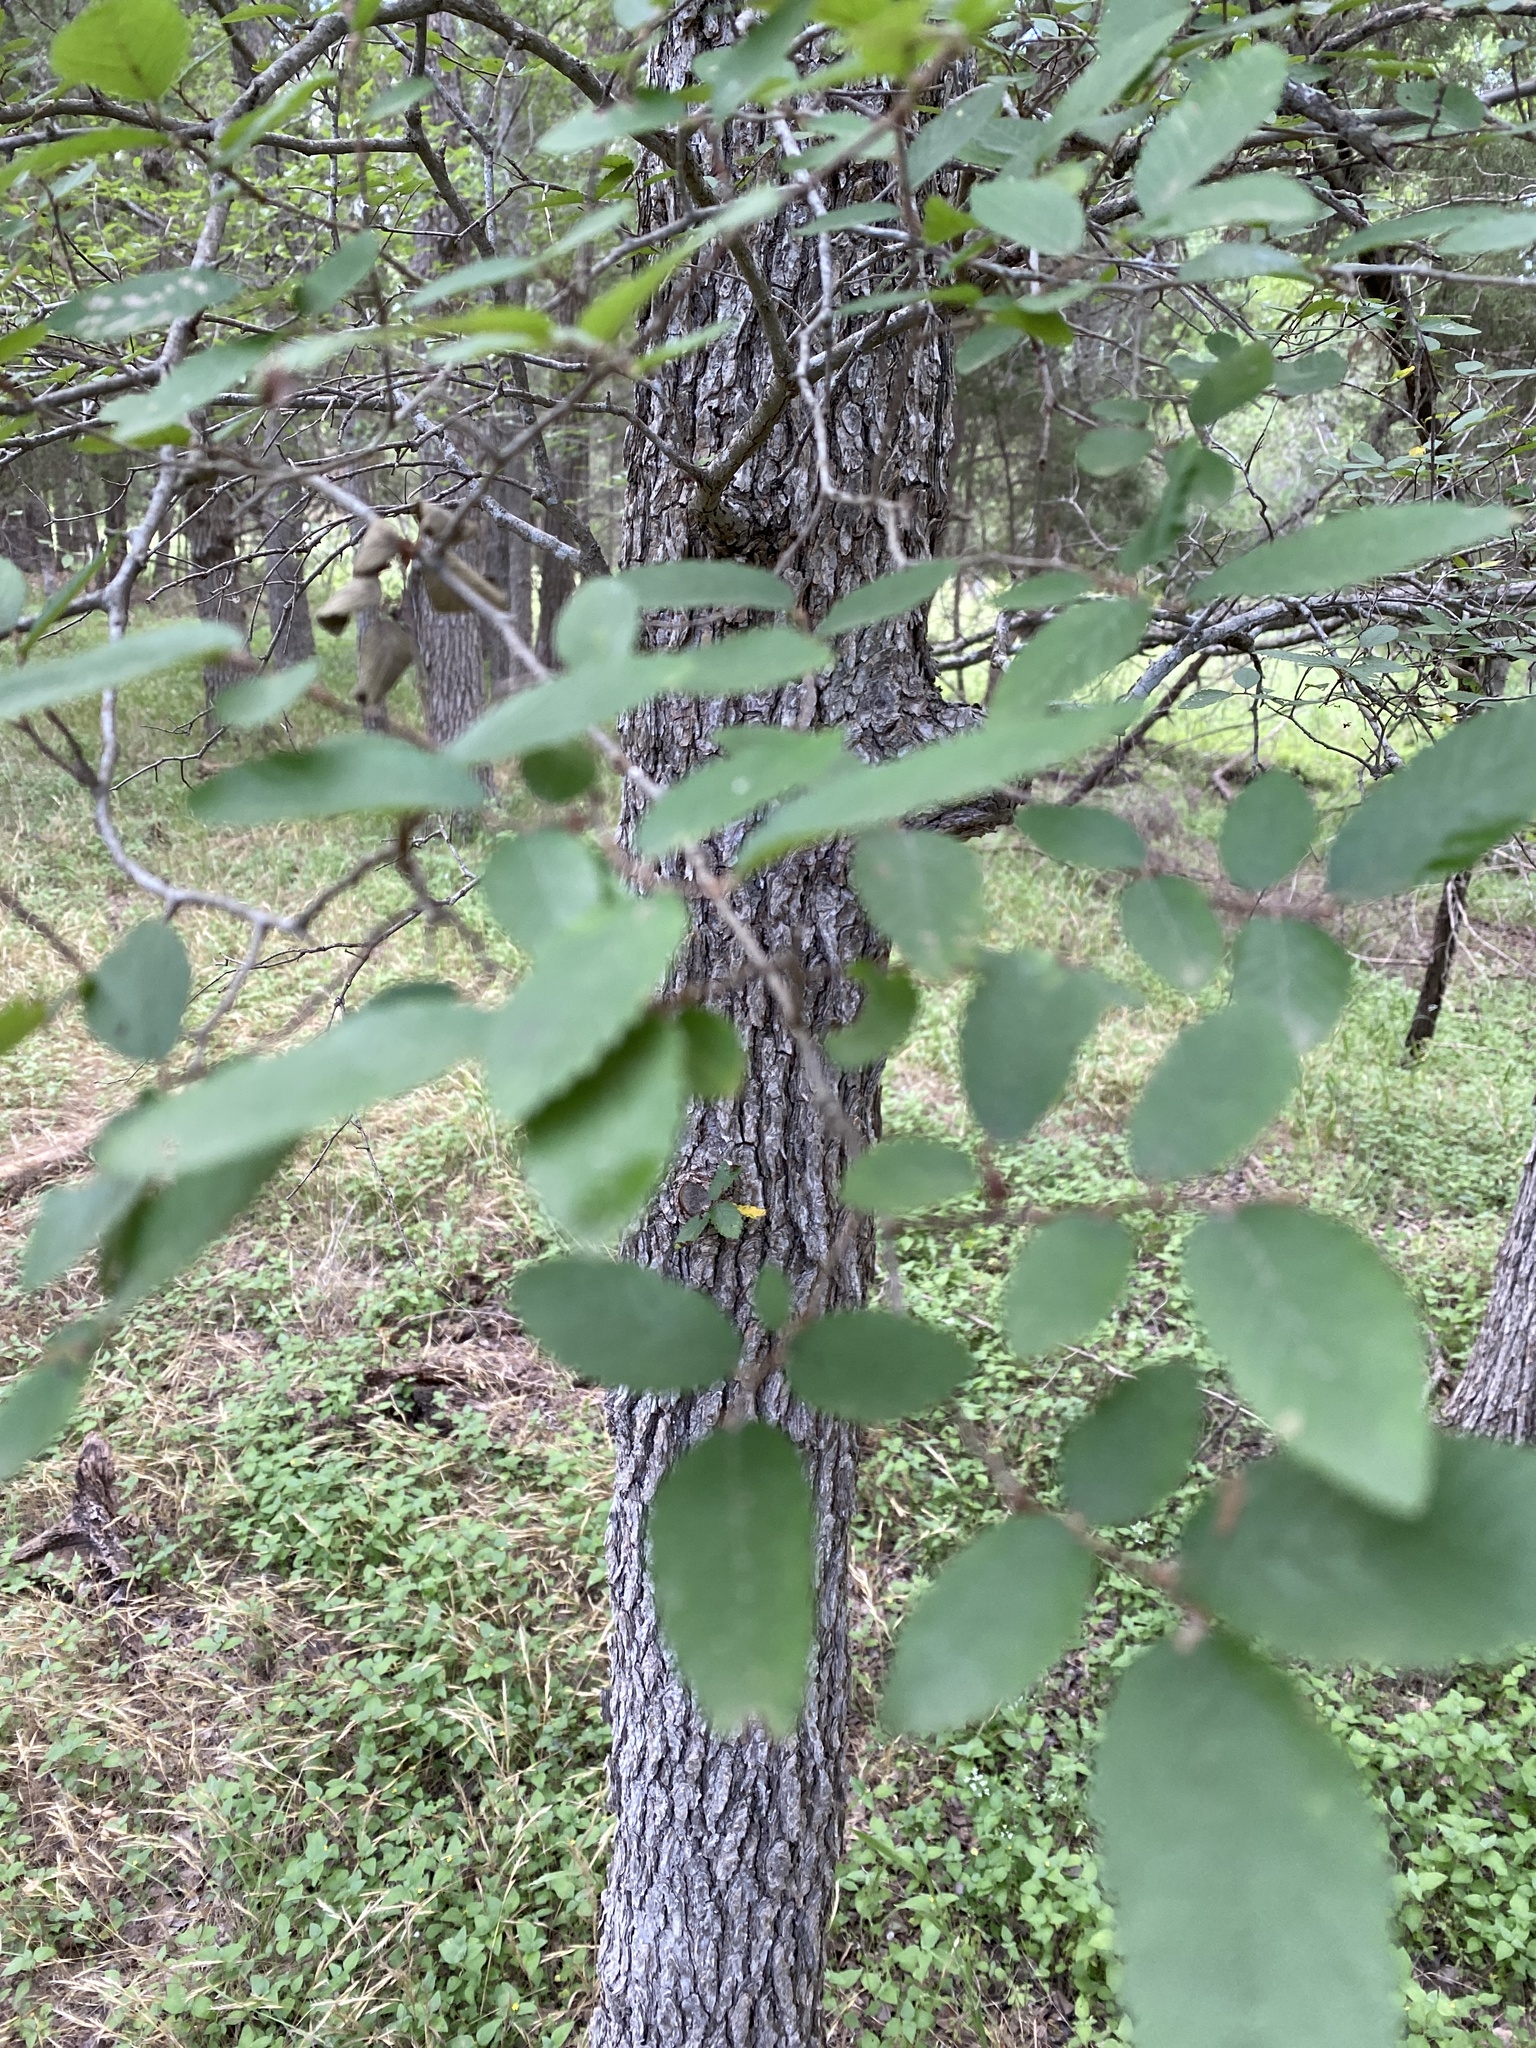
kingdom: Plantae
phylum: Tracheophyta
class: Magnoliopsida
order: Rosales
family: Ulmaceae
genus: Ulmus
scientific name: Ulmus crassifolia
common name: Basket elm
